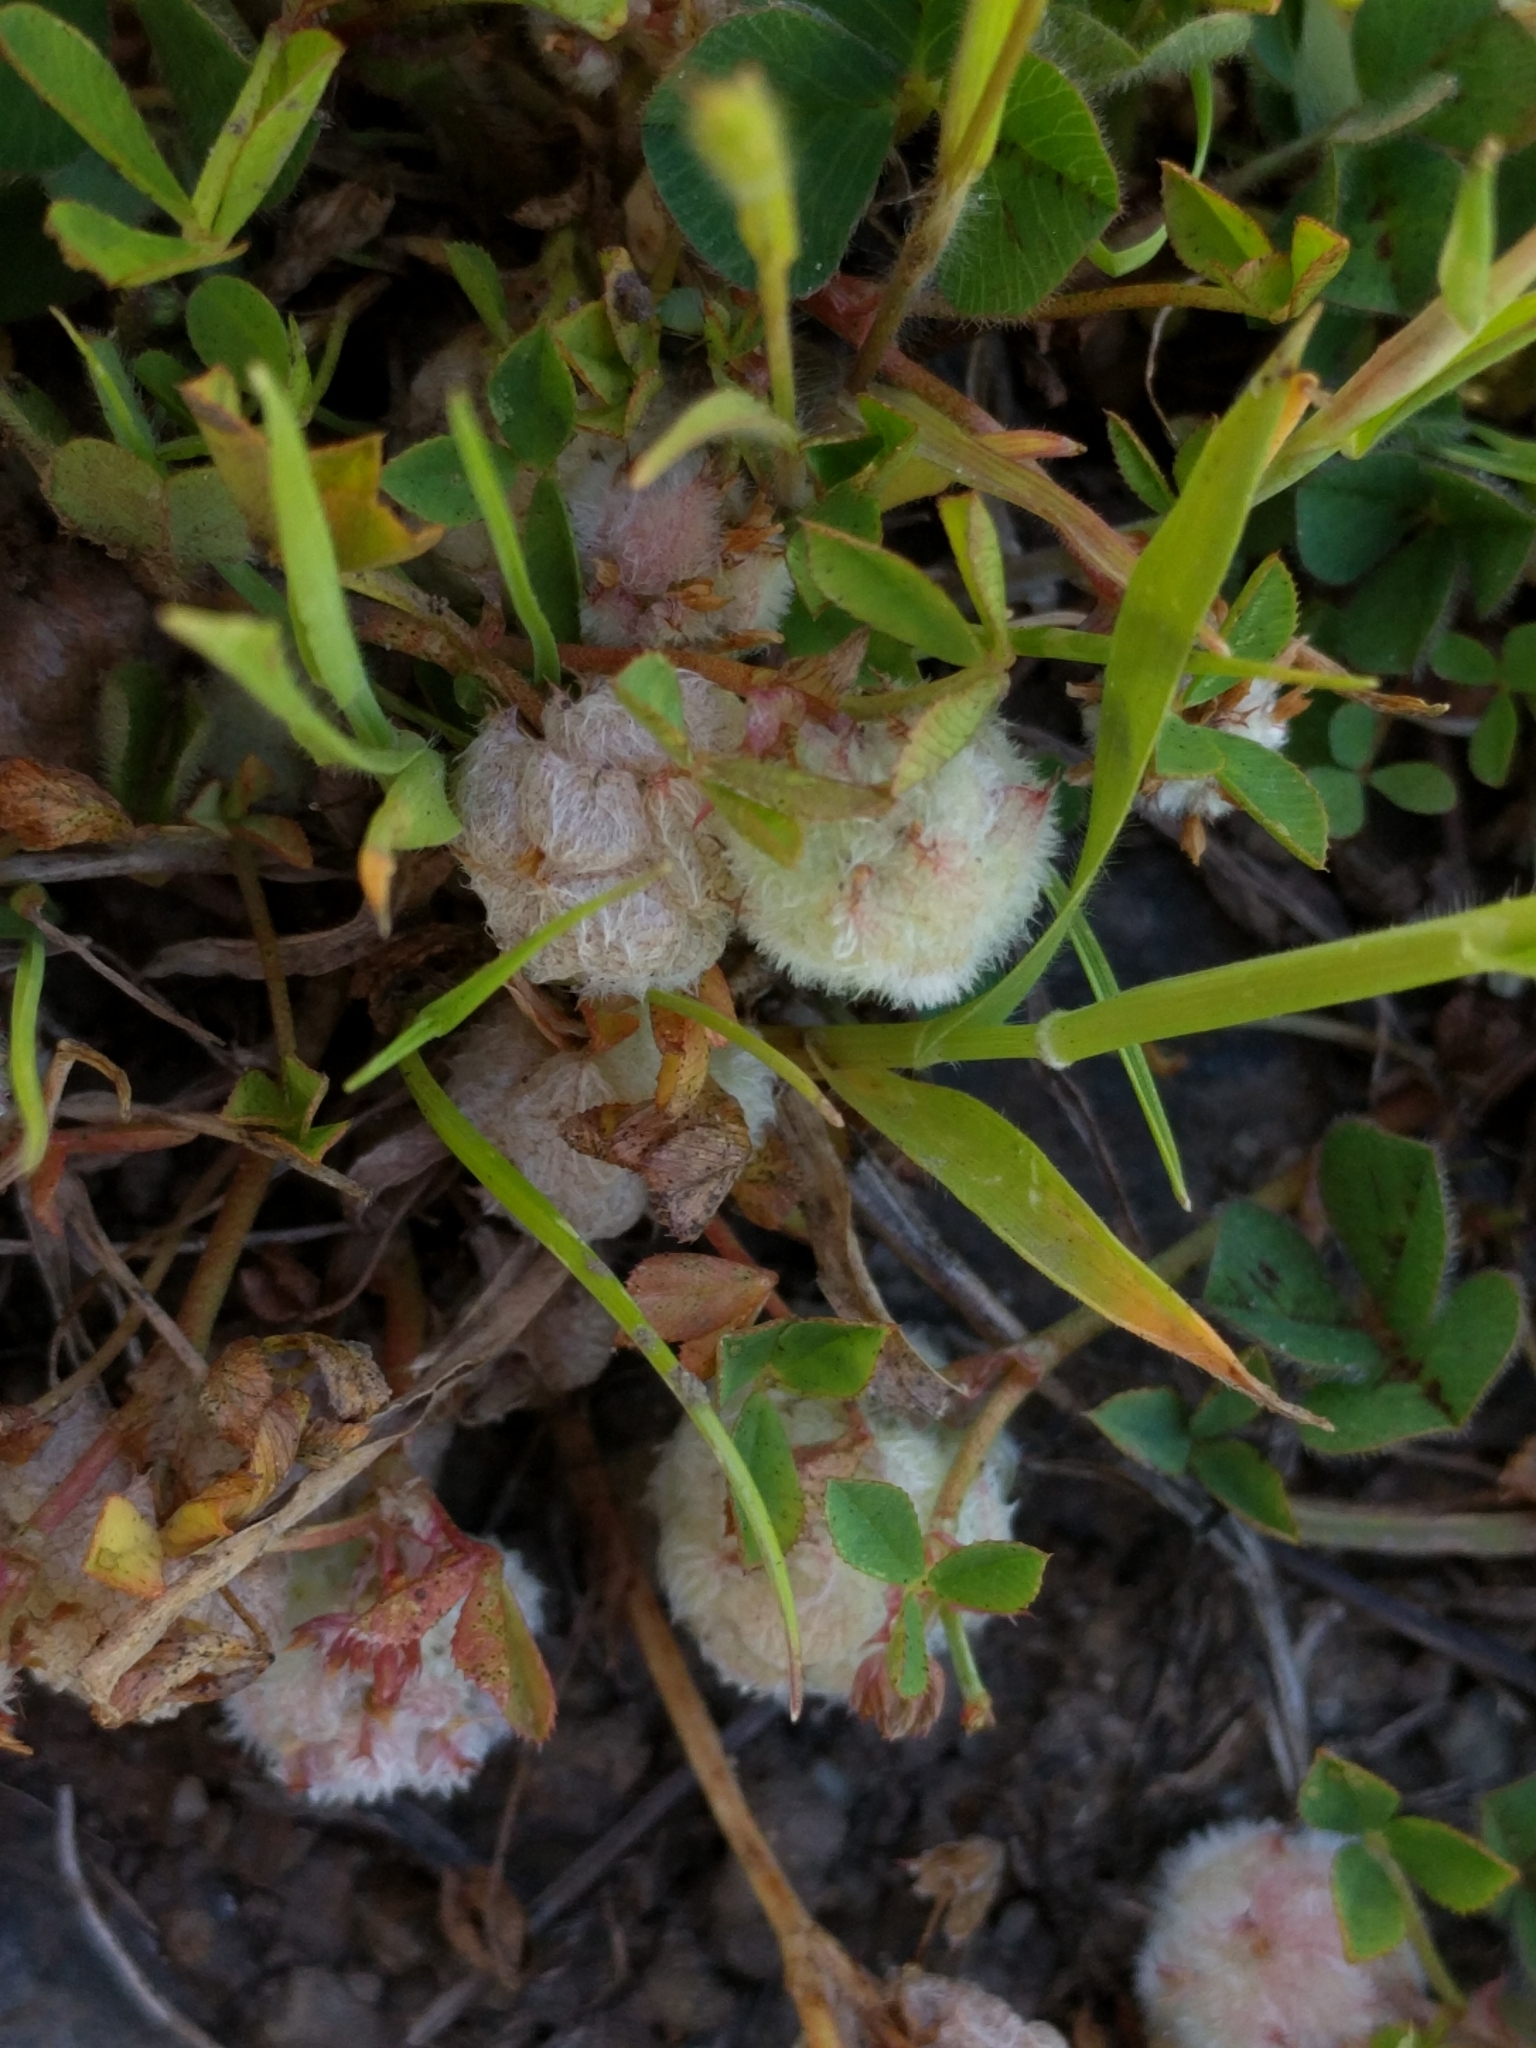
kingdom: Plantae
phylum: Tracheophyta
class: Magnoliopsida
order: Fabales
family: Fabaceae
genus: Trifolium
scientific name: Trifolium tomentosum
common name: Woolly clover
